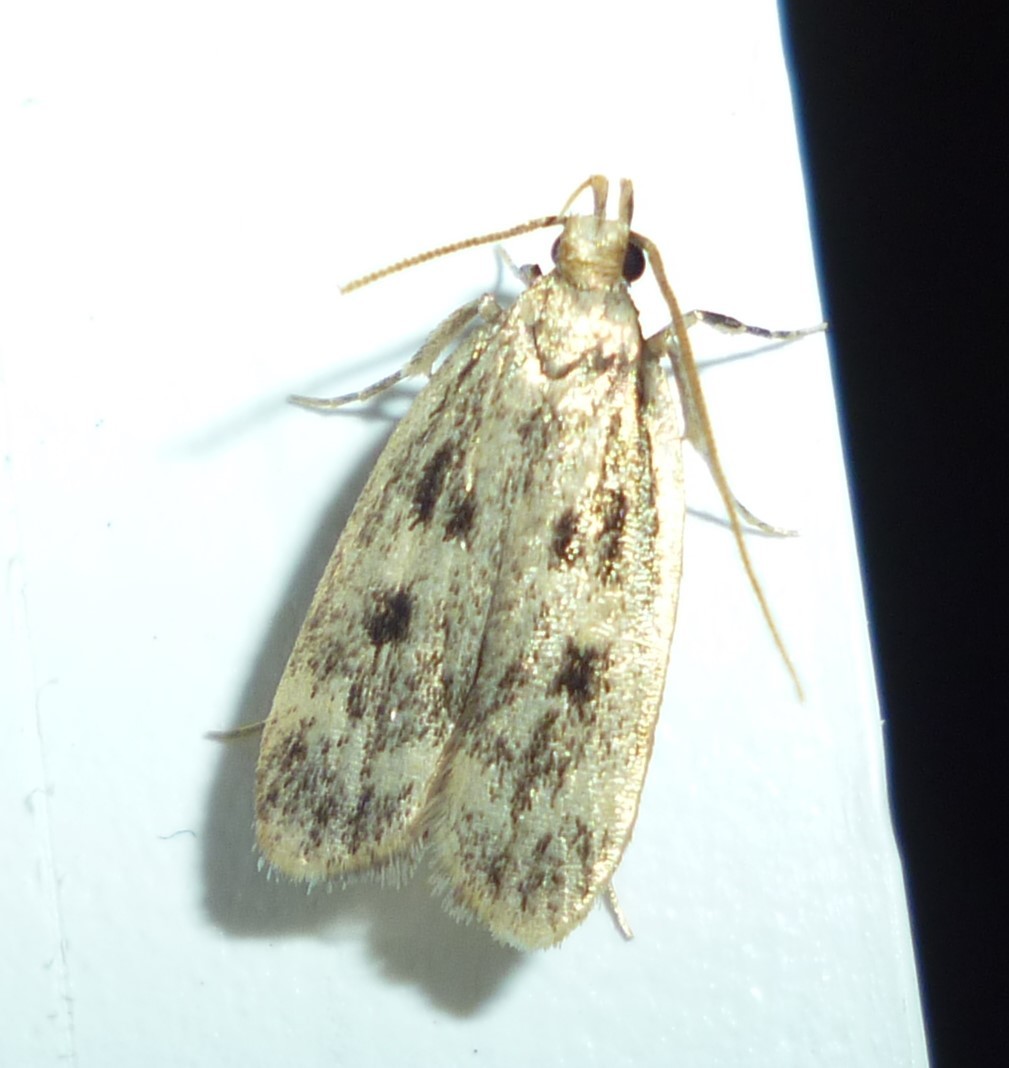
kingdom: Animalia
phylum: Arthropoda
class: Insecta
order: Lepidoptera
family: Lecithoceridae
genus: Martyringa
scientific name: Martyringa latipennis
